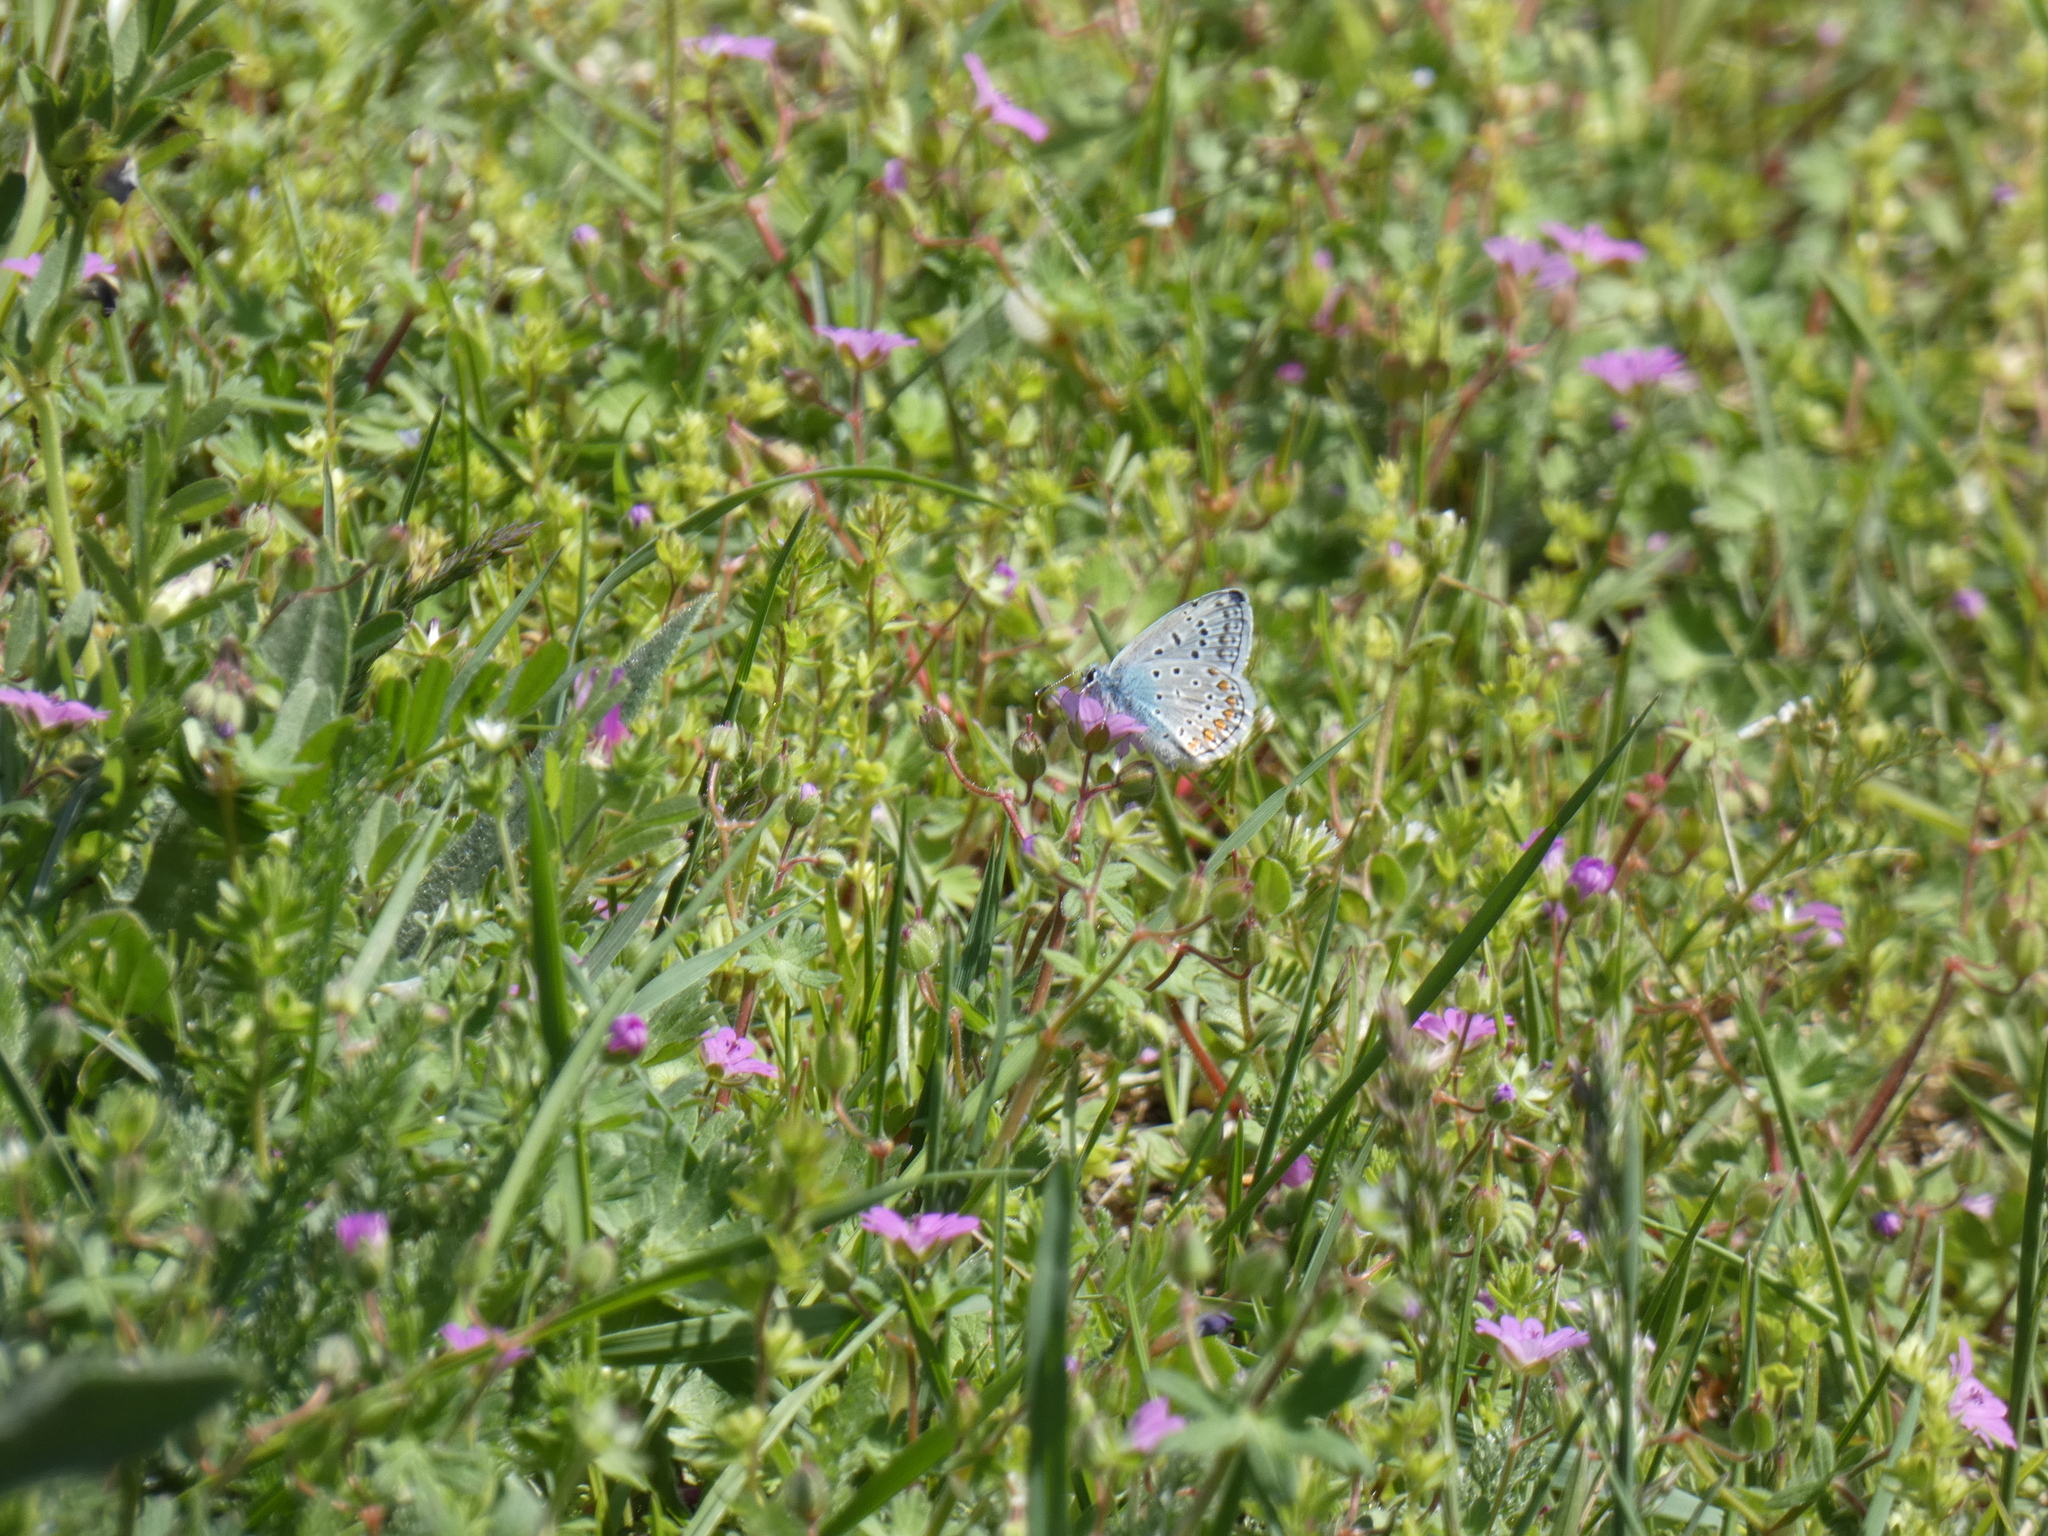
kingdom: Animalia
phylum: Arthropoda
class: Insecta
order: Lepidoptera
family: Lycaenidae
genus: Polyommatus
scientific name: Polyommatus icarus
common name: Common blue
